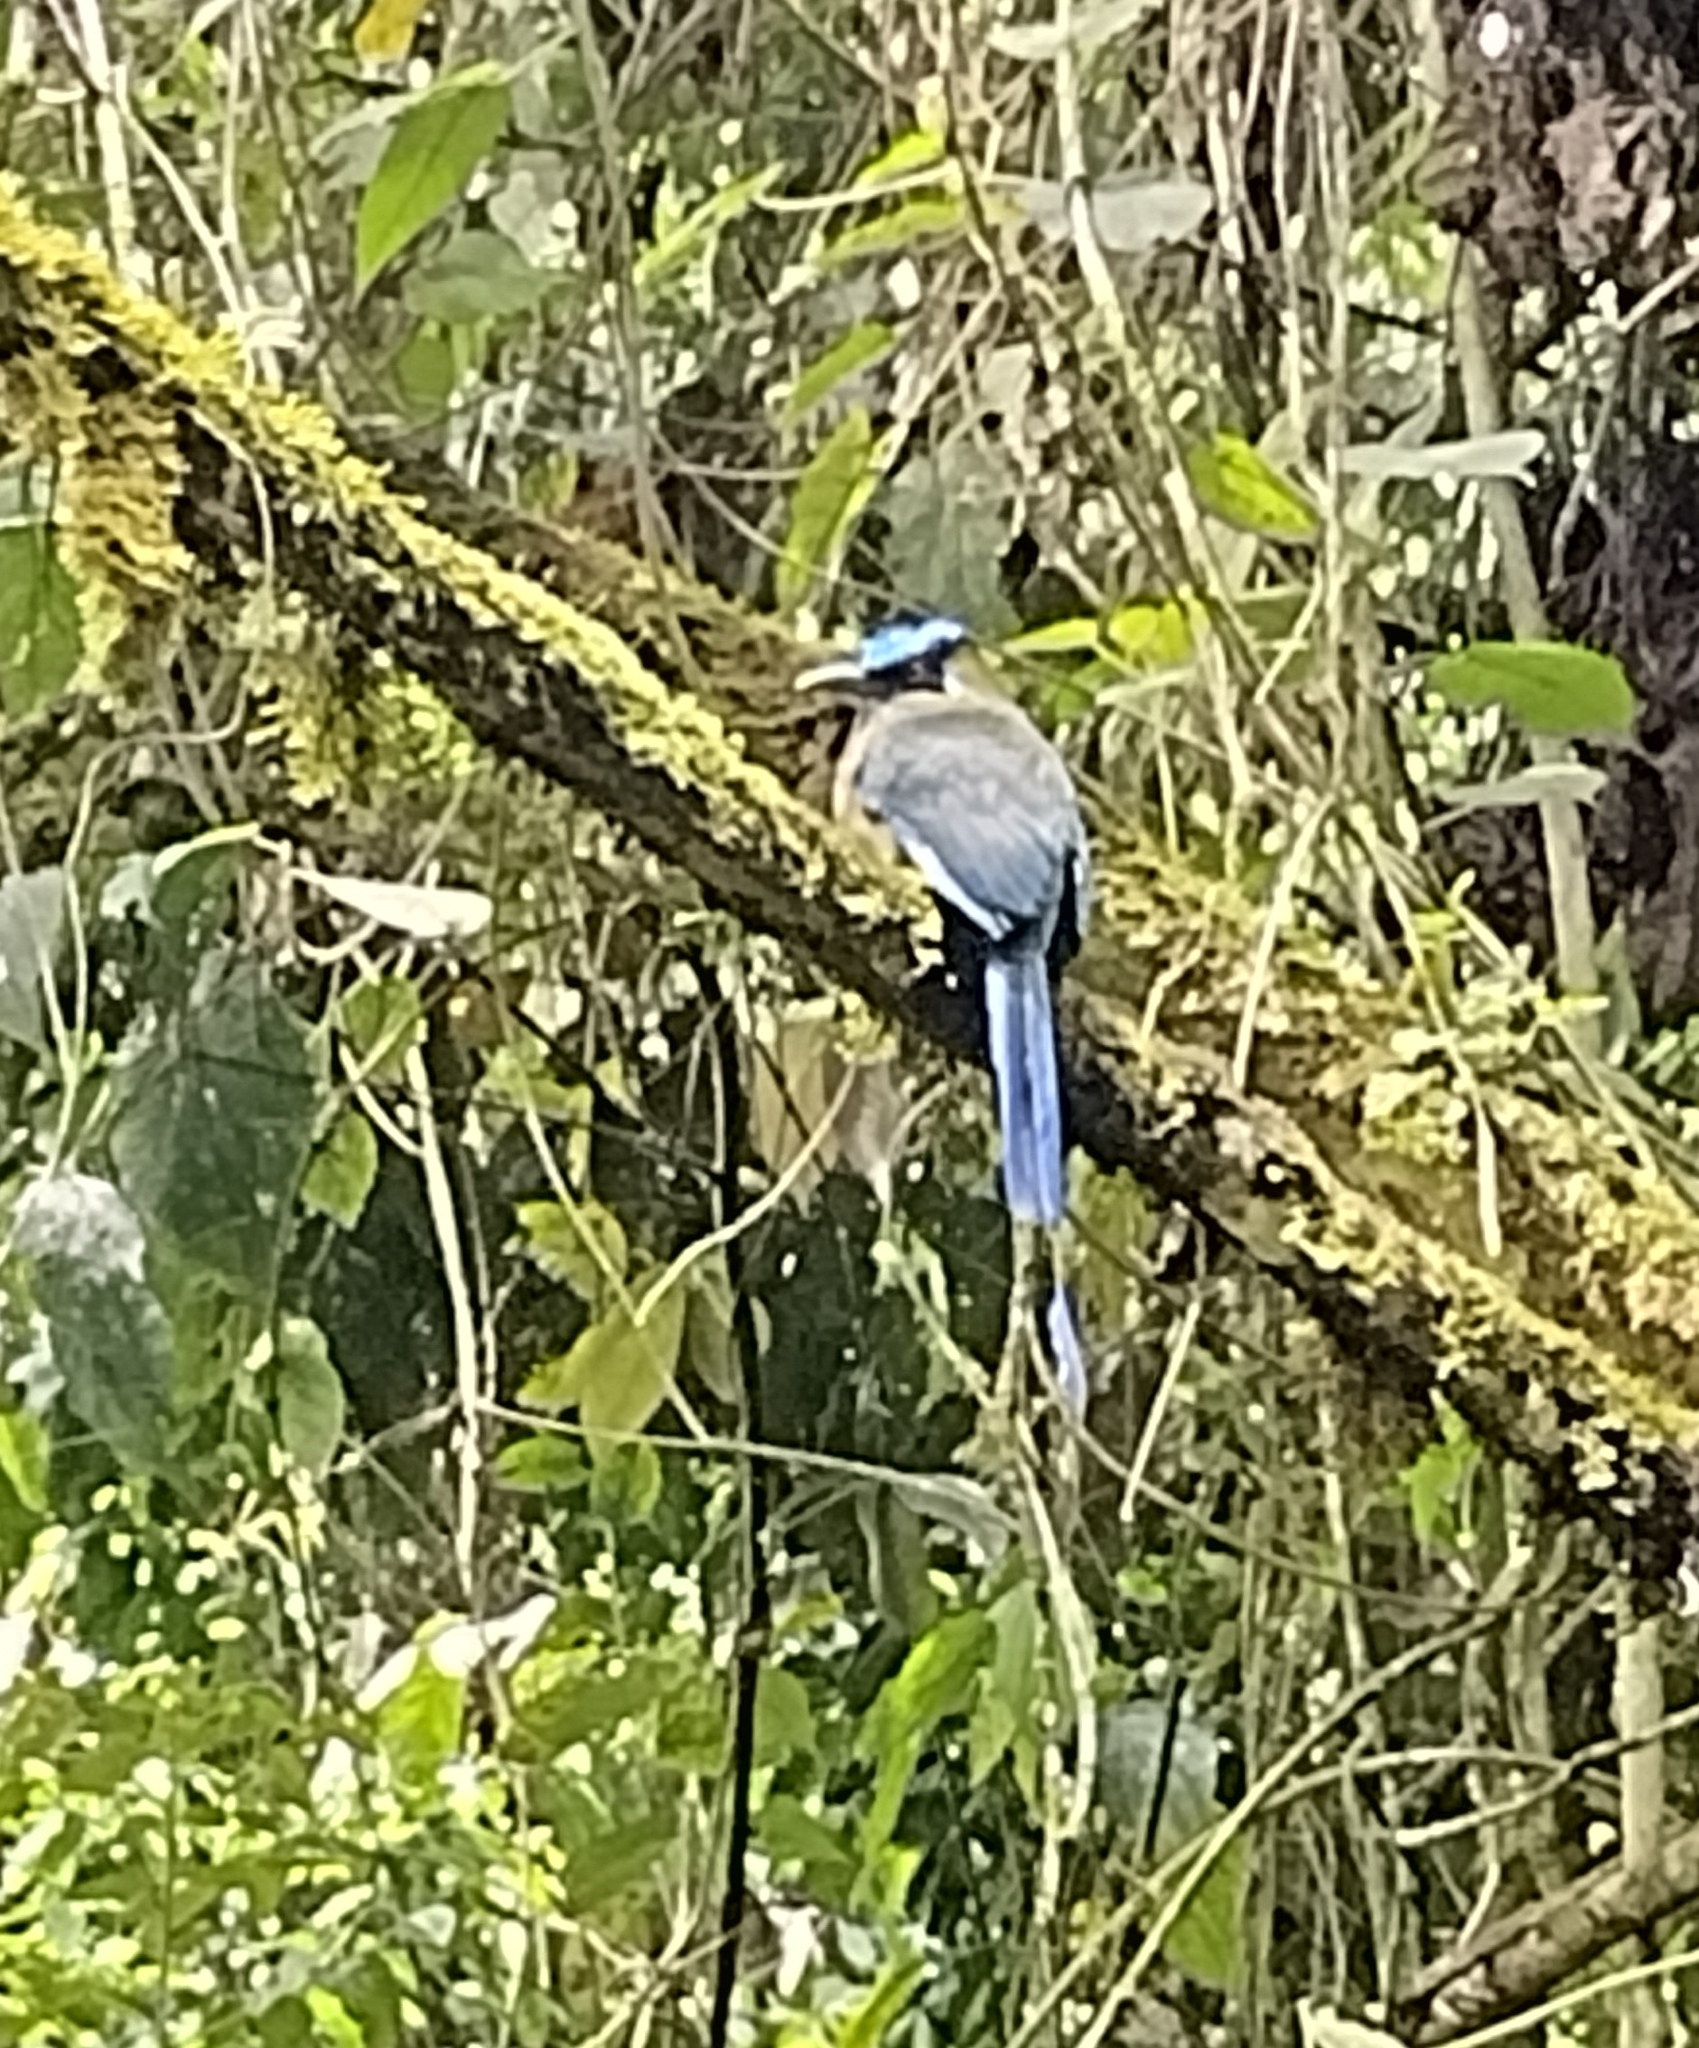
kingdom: Animalia
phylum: Chordata
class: Aves
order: Coraciiformes
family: Momotidae
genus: Momotus
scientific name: Momotus aequatorialis
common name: Andean motmot
